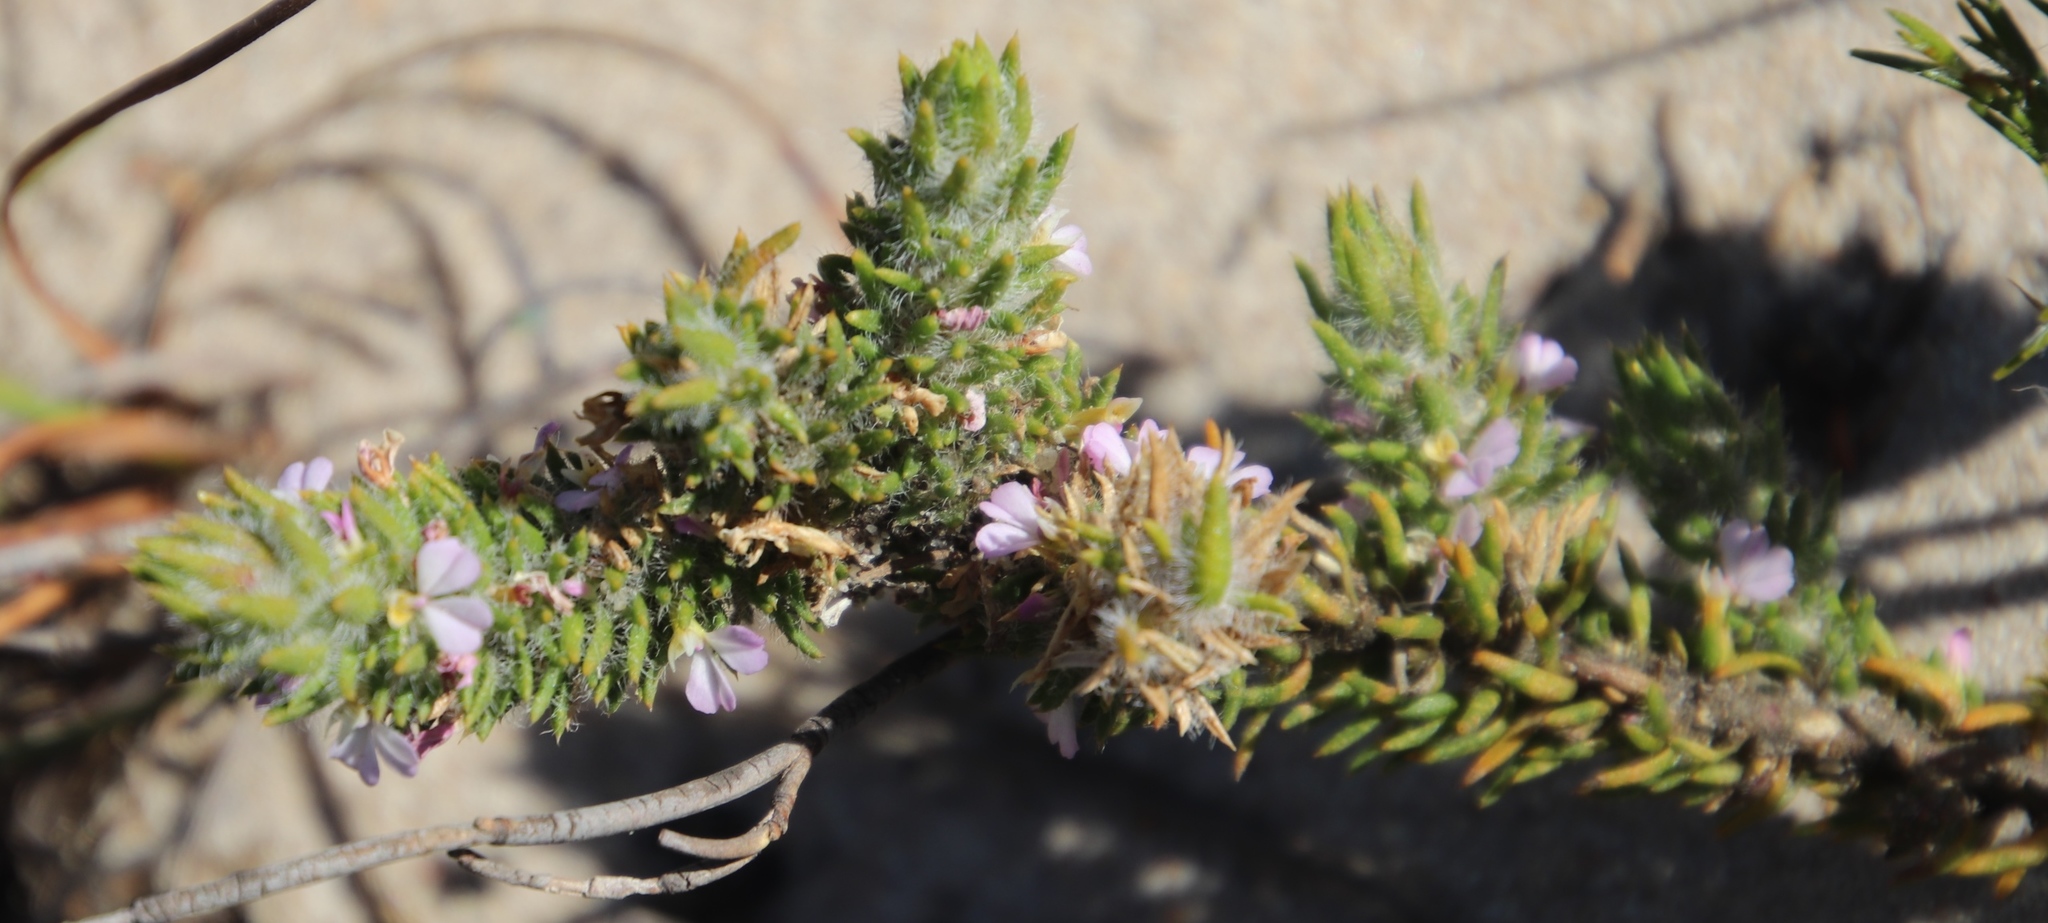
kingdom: Plantae
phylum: Tracheophyta
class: Magnoliopsida
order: Fabales
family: Polygalaceae
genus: Muraltia
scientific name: Muraltia thunbergii
